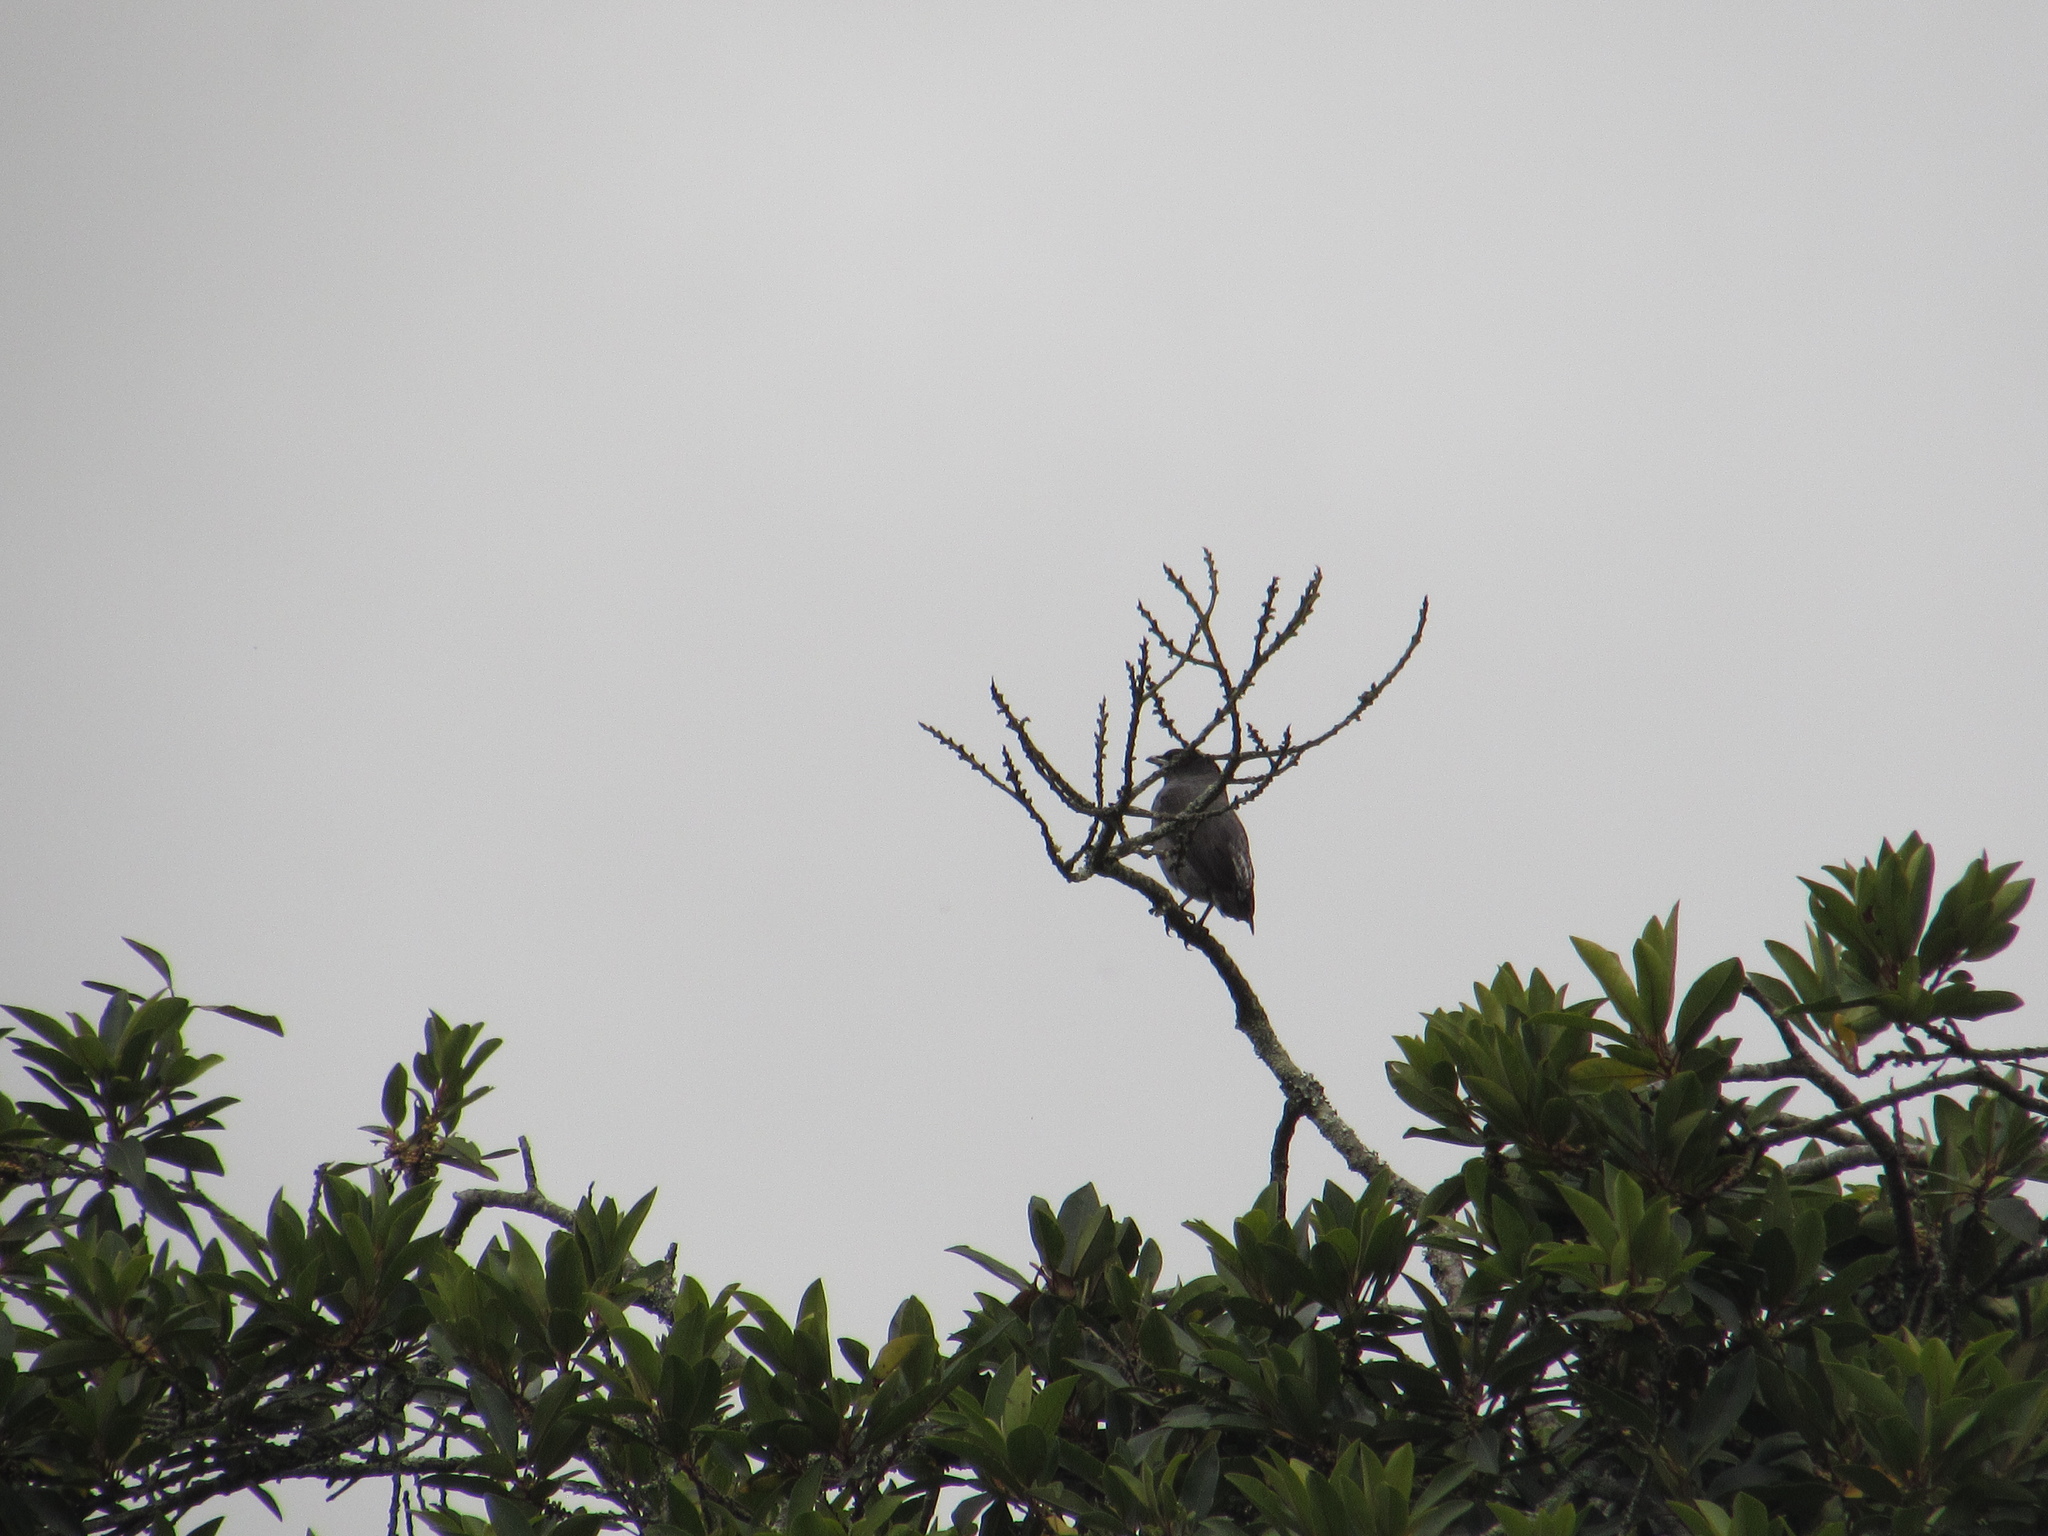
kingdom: Animalia
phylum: Chordata
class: Aves
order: Passeriformes
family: Cotingidae
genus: Ampelion
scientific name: Ampelion rubrocristatus
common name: Red-crested cotinga
